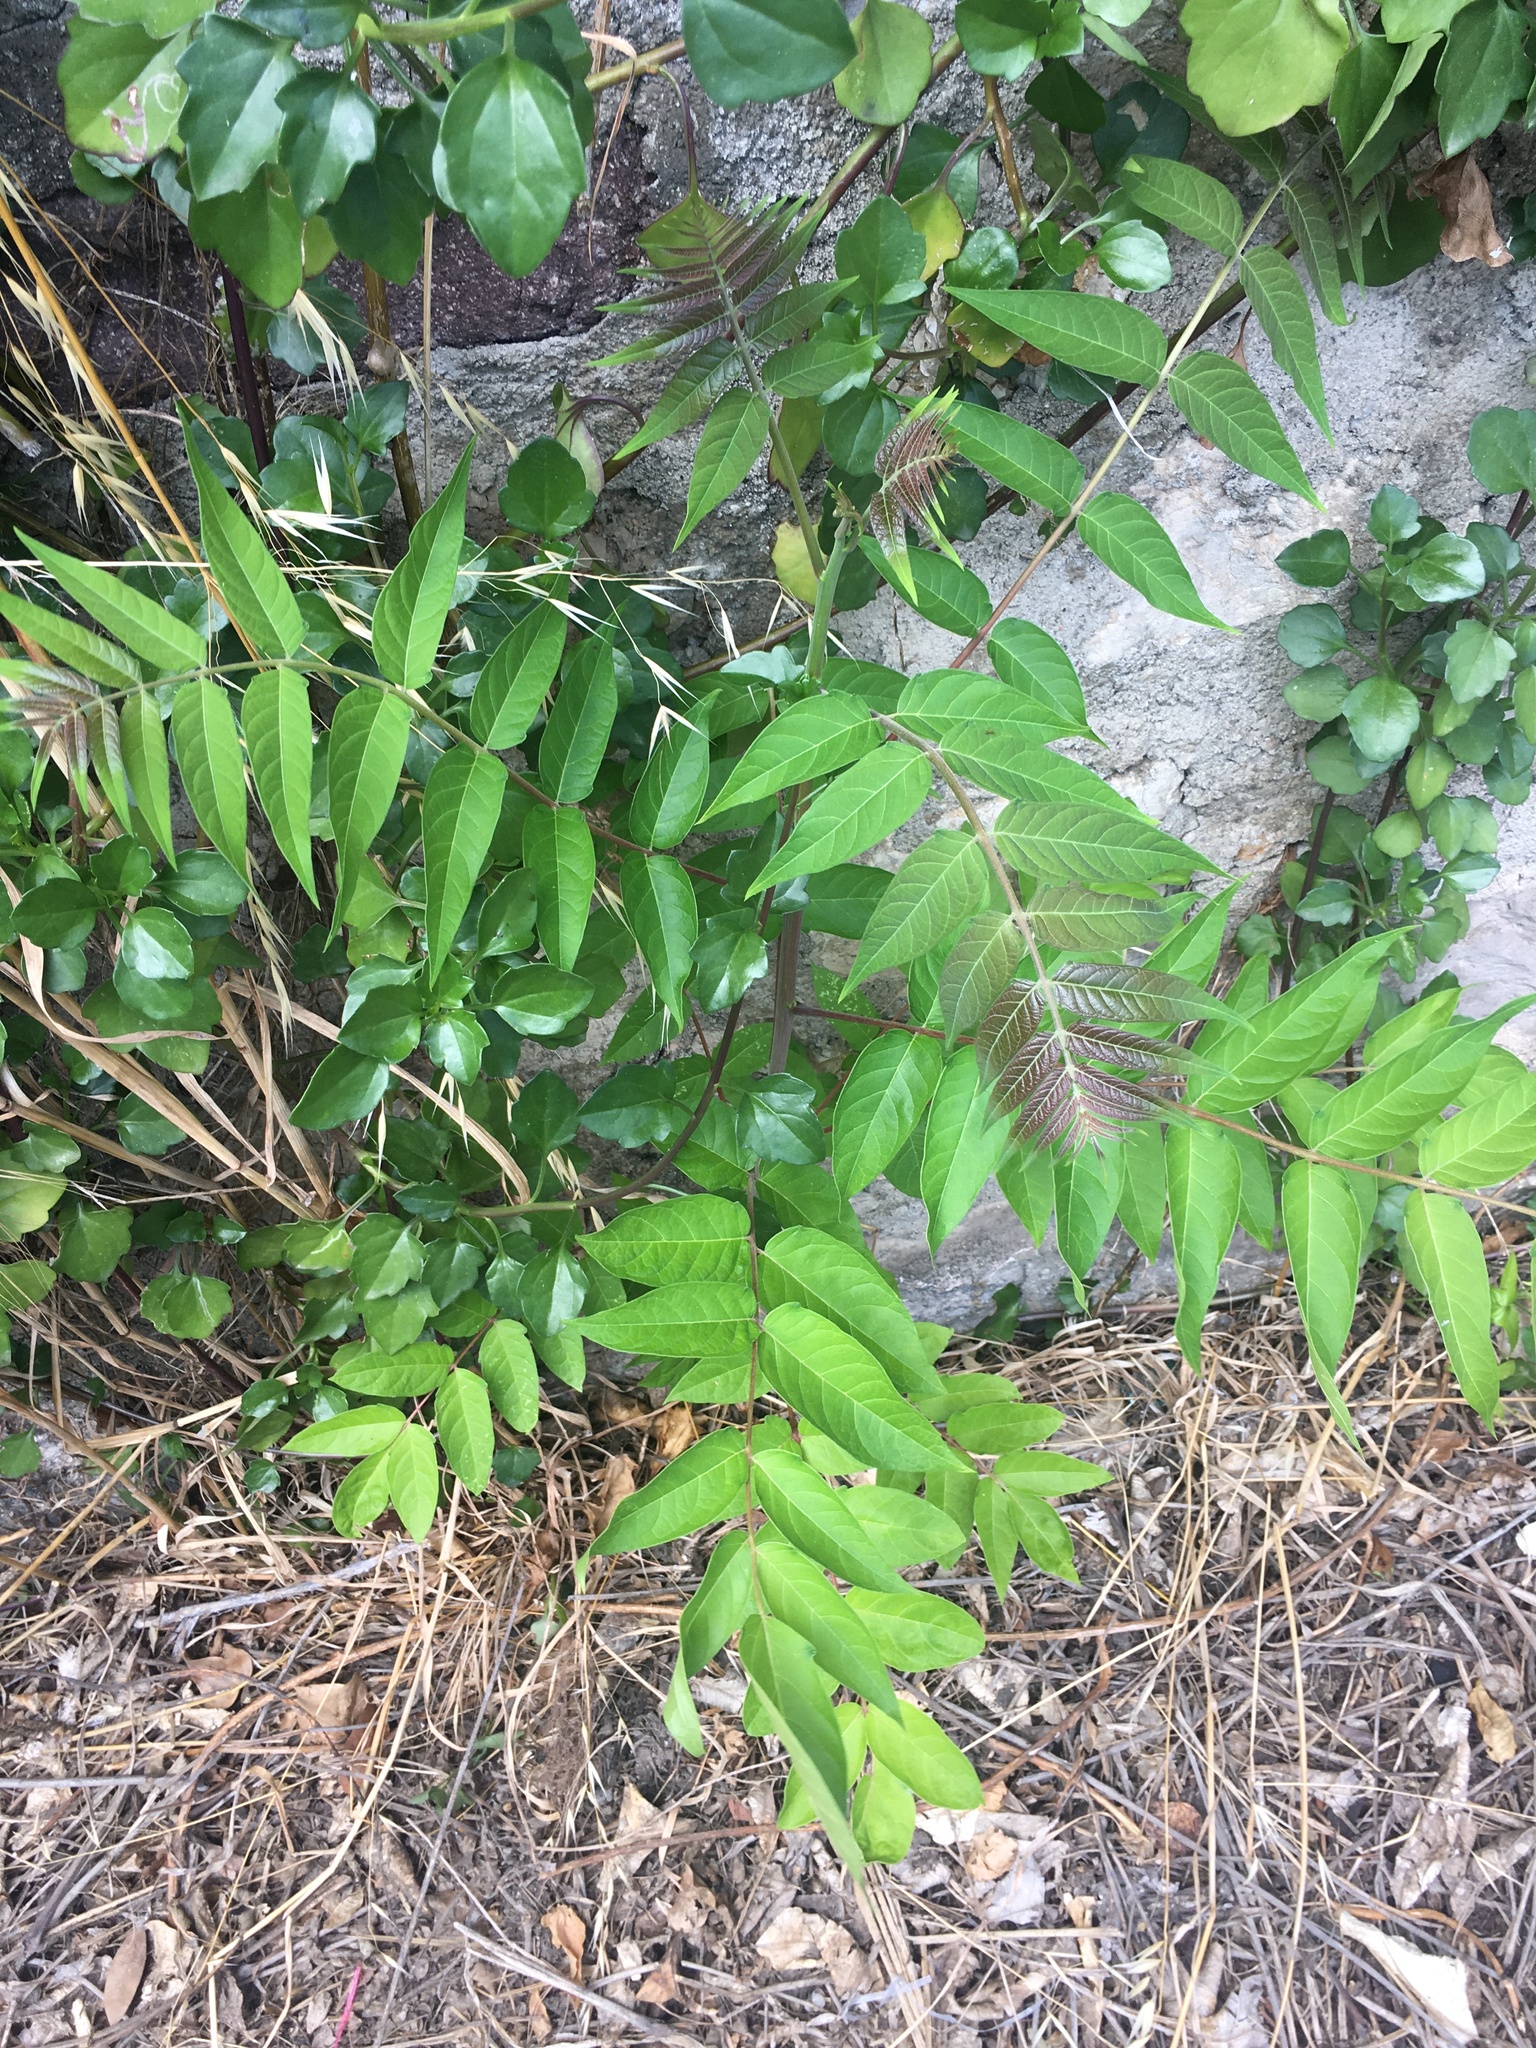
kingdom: Plantae
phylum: Tracheophyta
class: Magnoliopsida
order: Sapindales
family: Simaroubaceae
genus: Ailanthus
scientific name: Ailanthus altissima
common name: Tree-of-heaven
